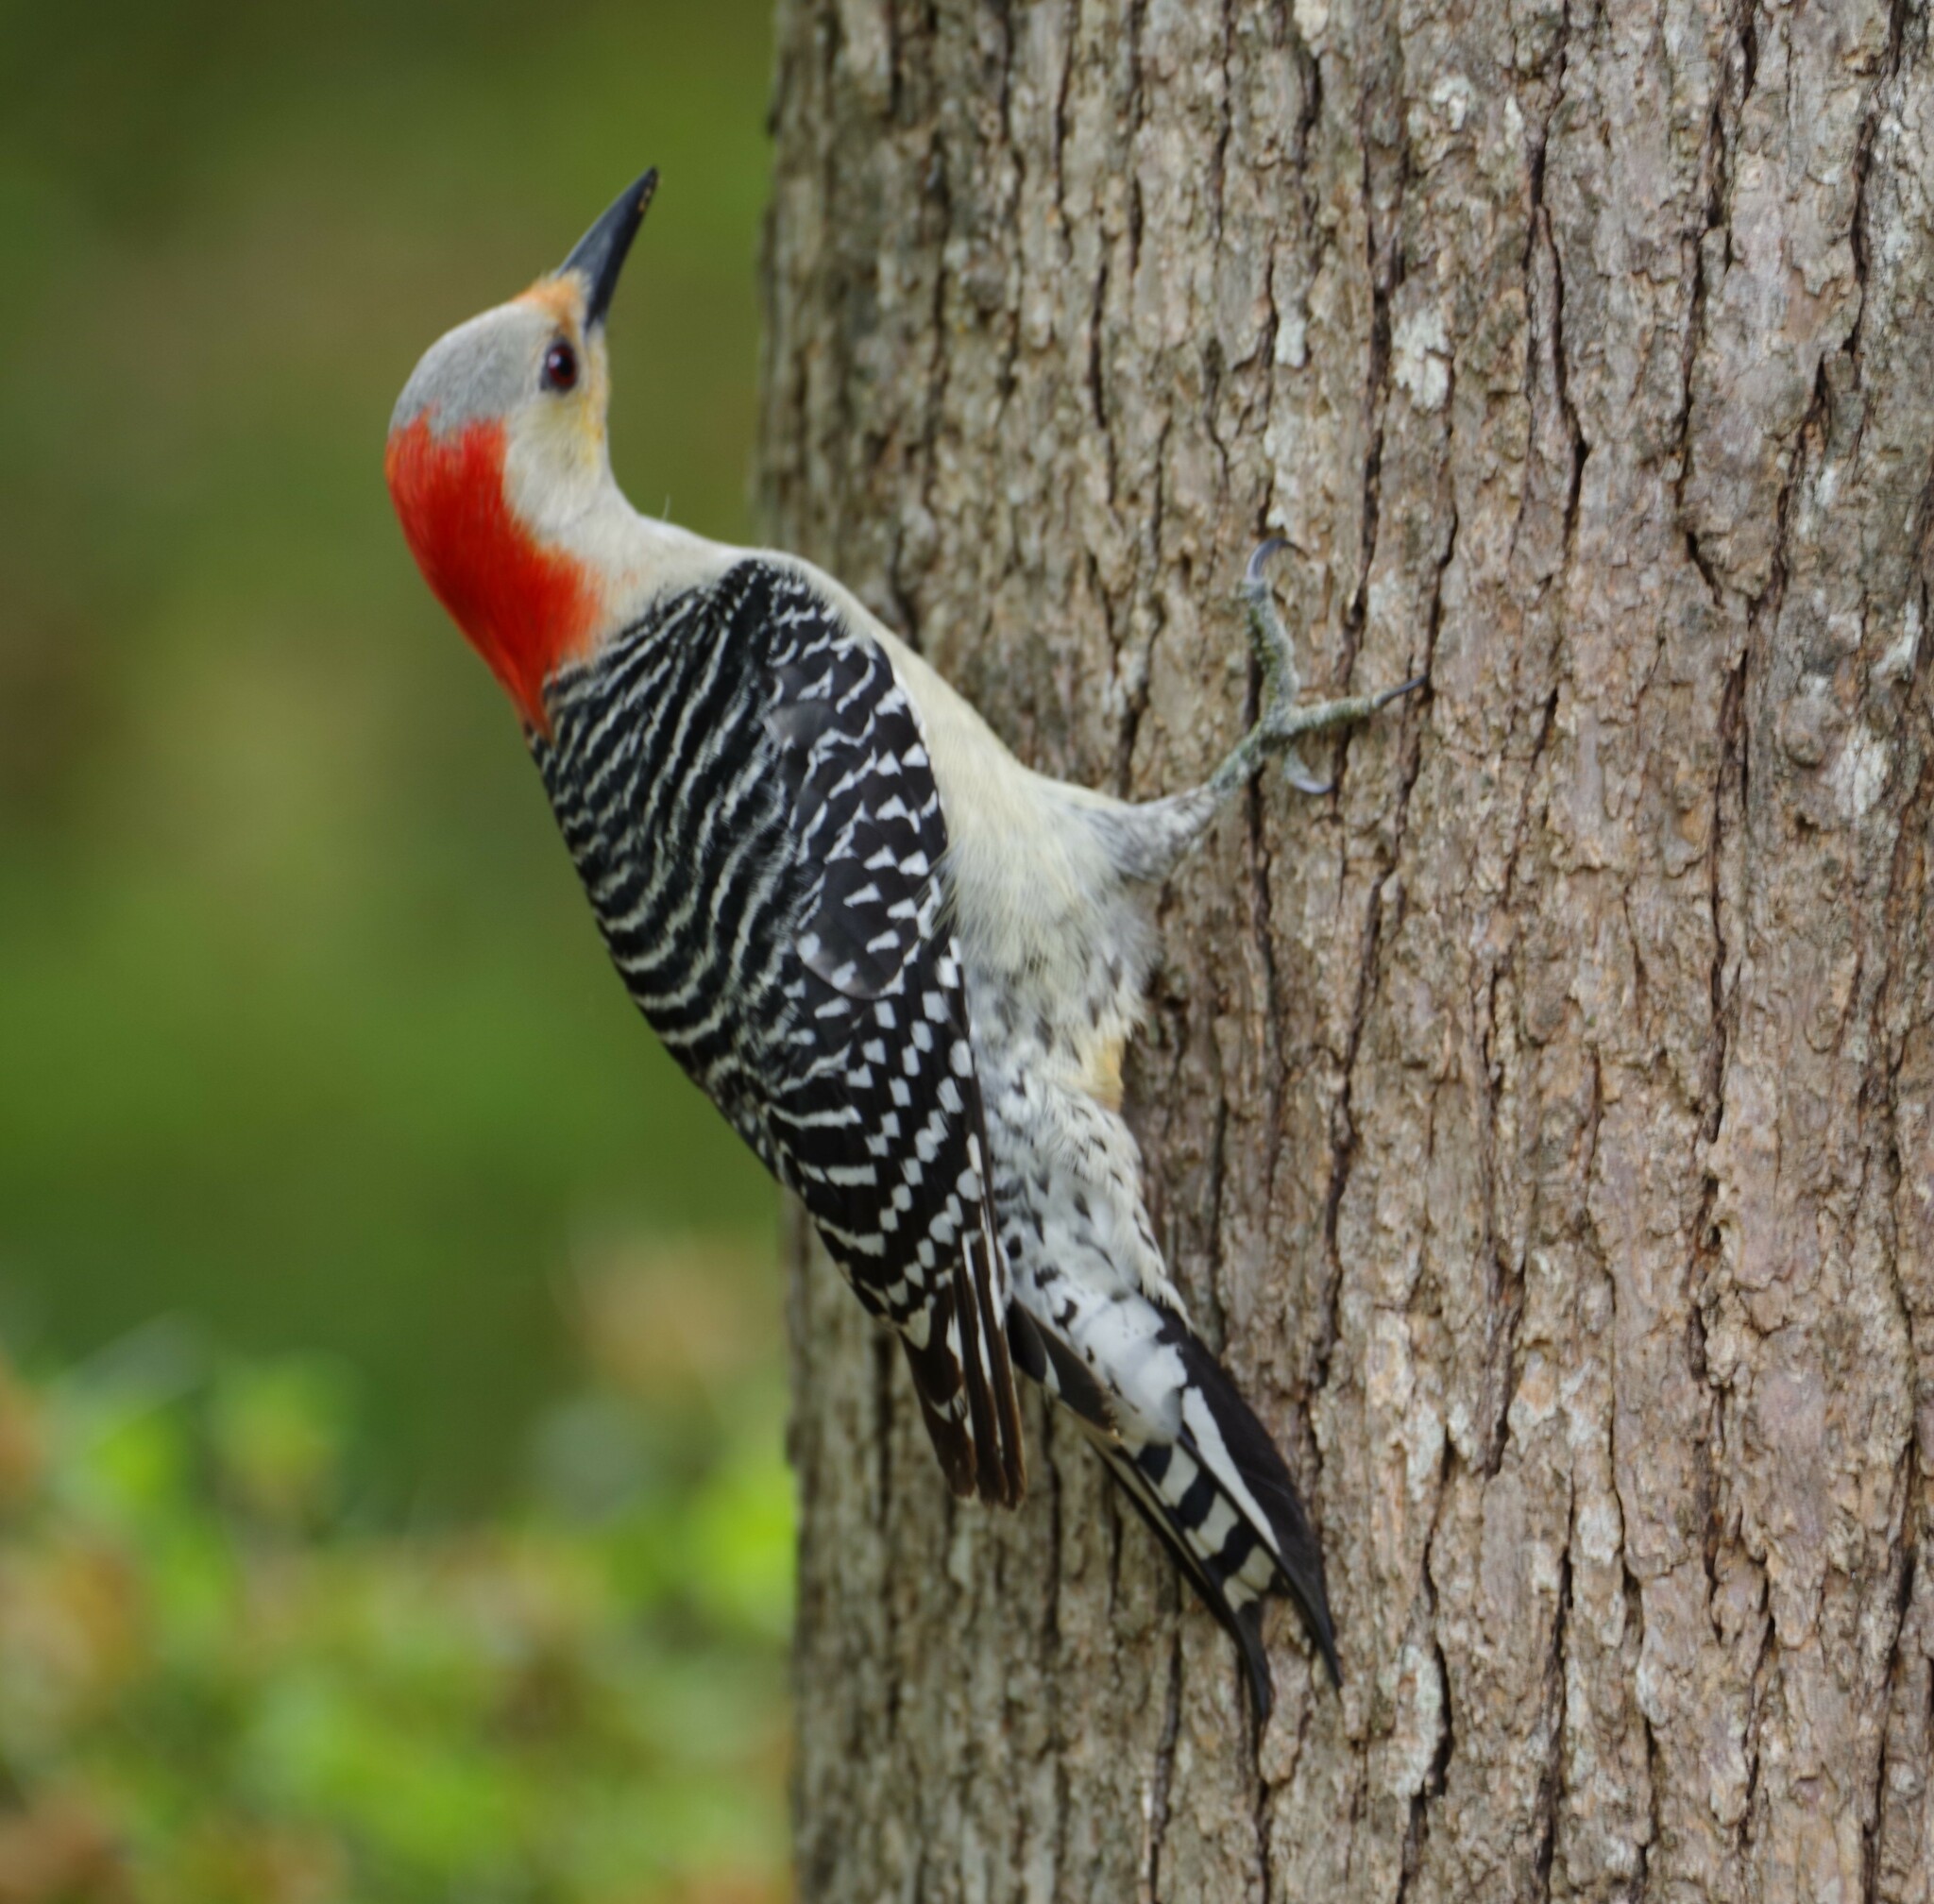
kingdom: Animalia
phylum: Chordata
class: Aves
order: Piciformes
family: Picidae
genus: Melanerpes
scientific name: Melanerpes carolinus
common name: Red-bellied woodpecker
